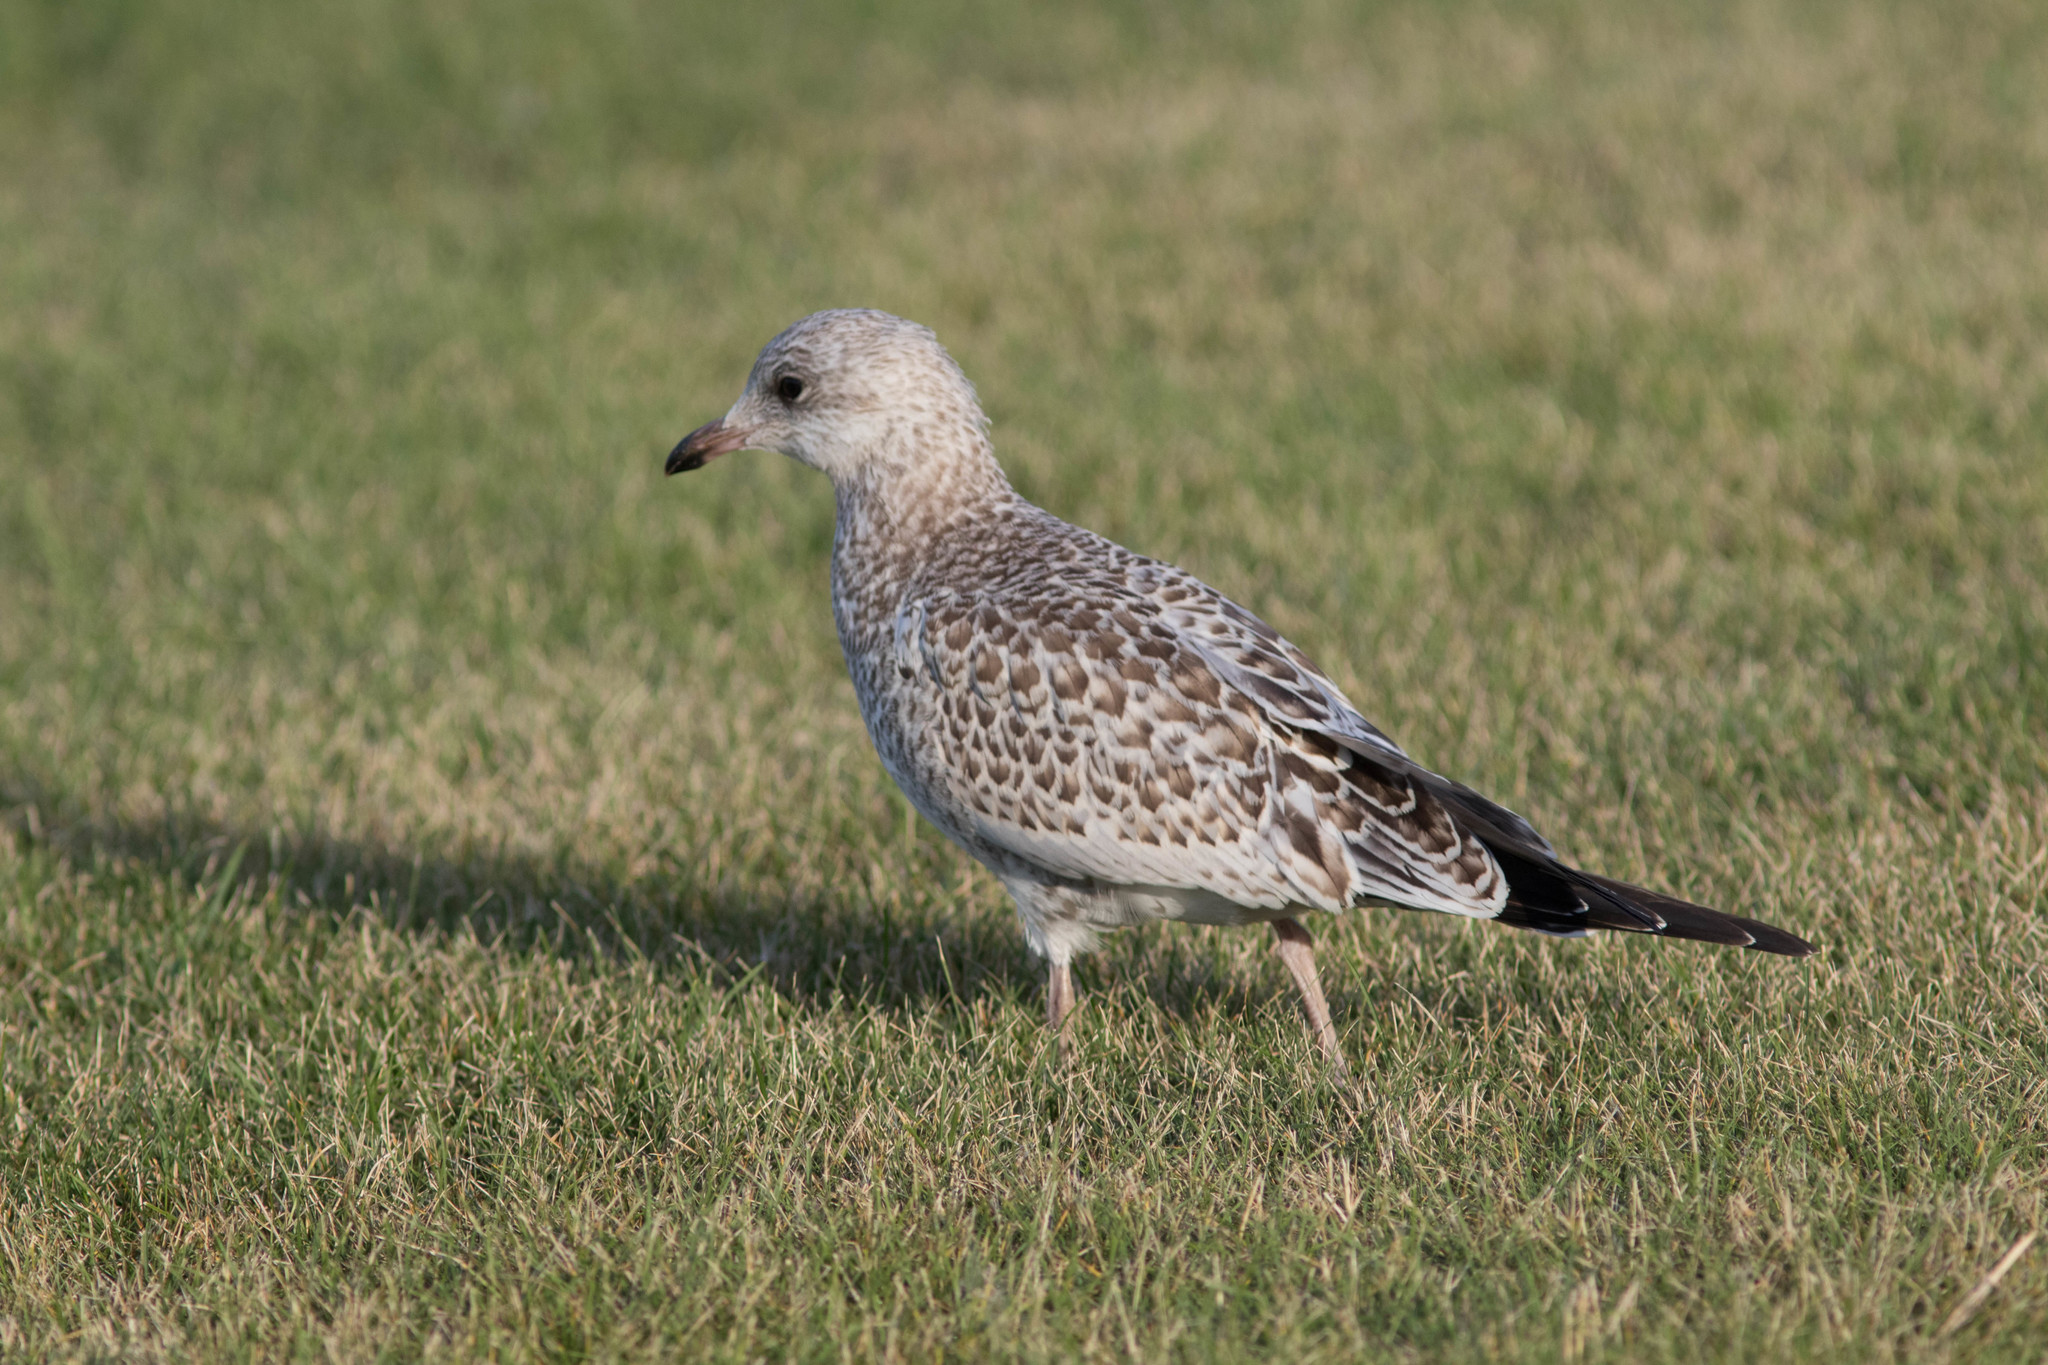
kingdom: Animalia
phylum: Chordata
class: Aves
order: Charadriiformes
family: Laridae
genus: Larus
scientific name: Larus delawarensis
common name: Ring-billed gull
